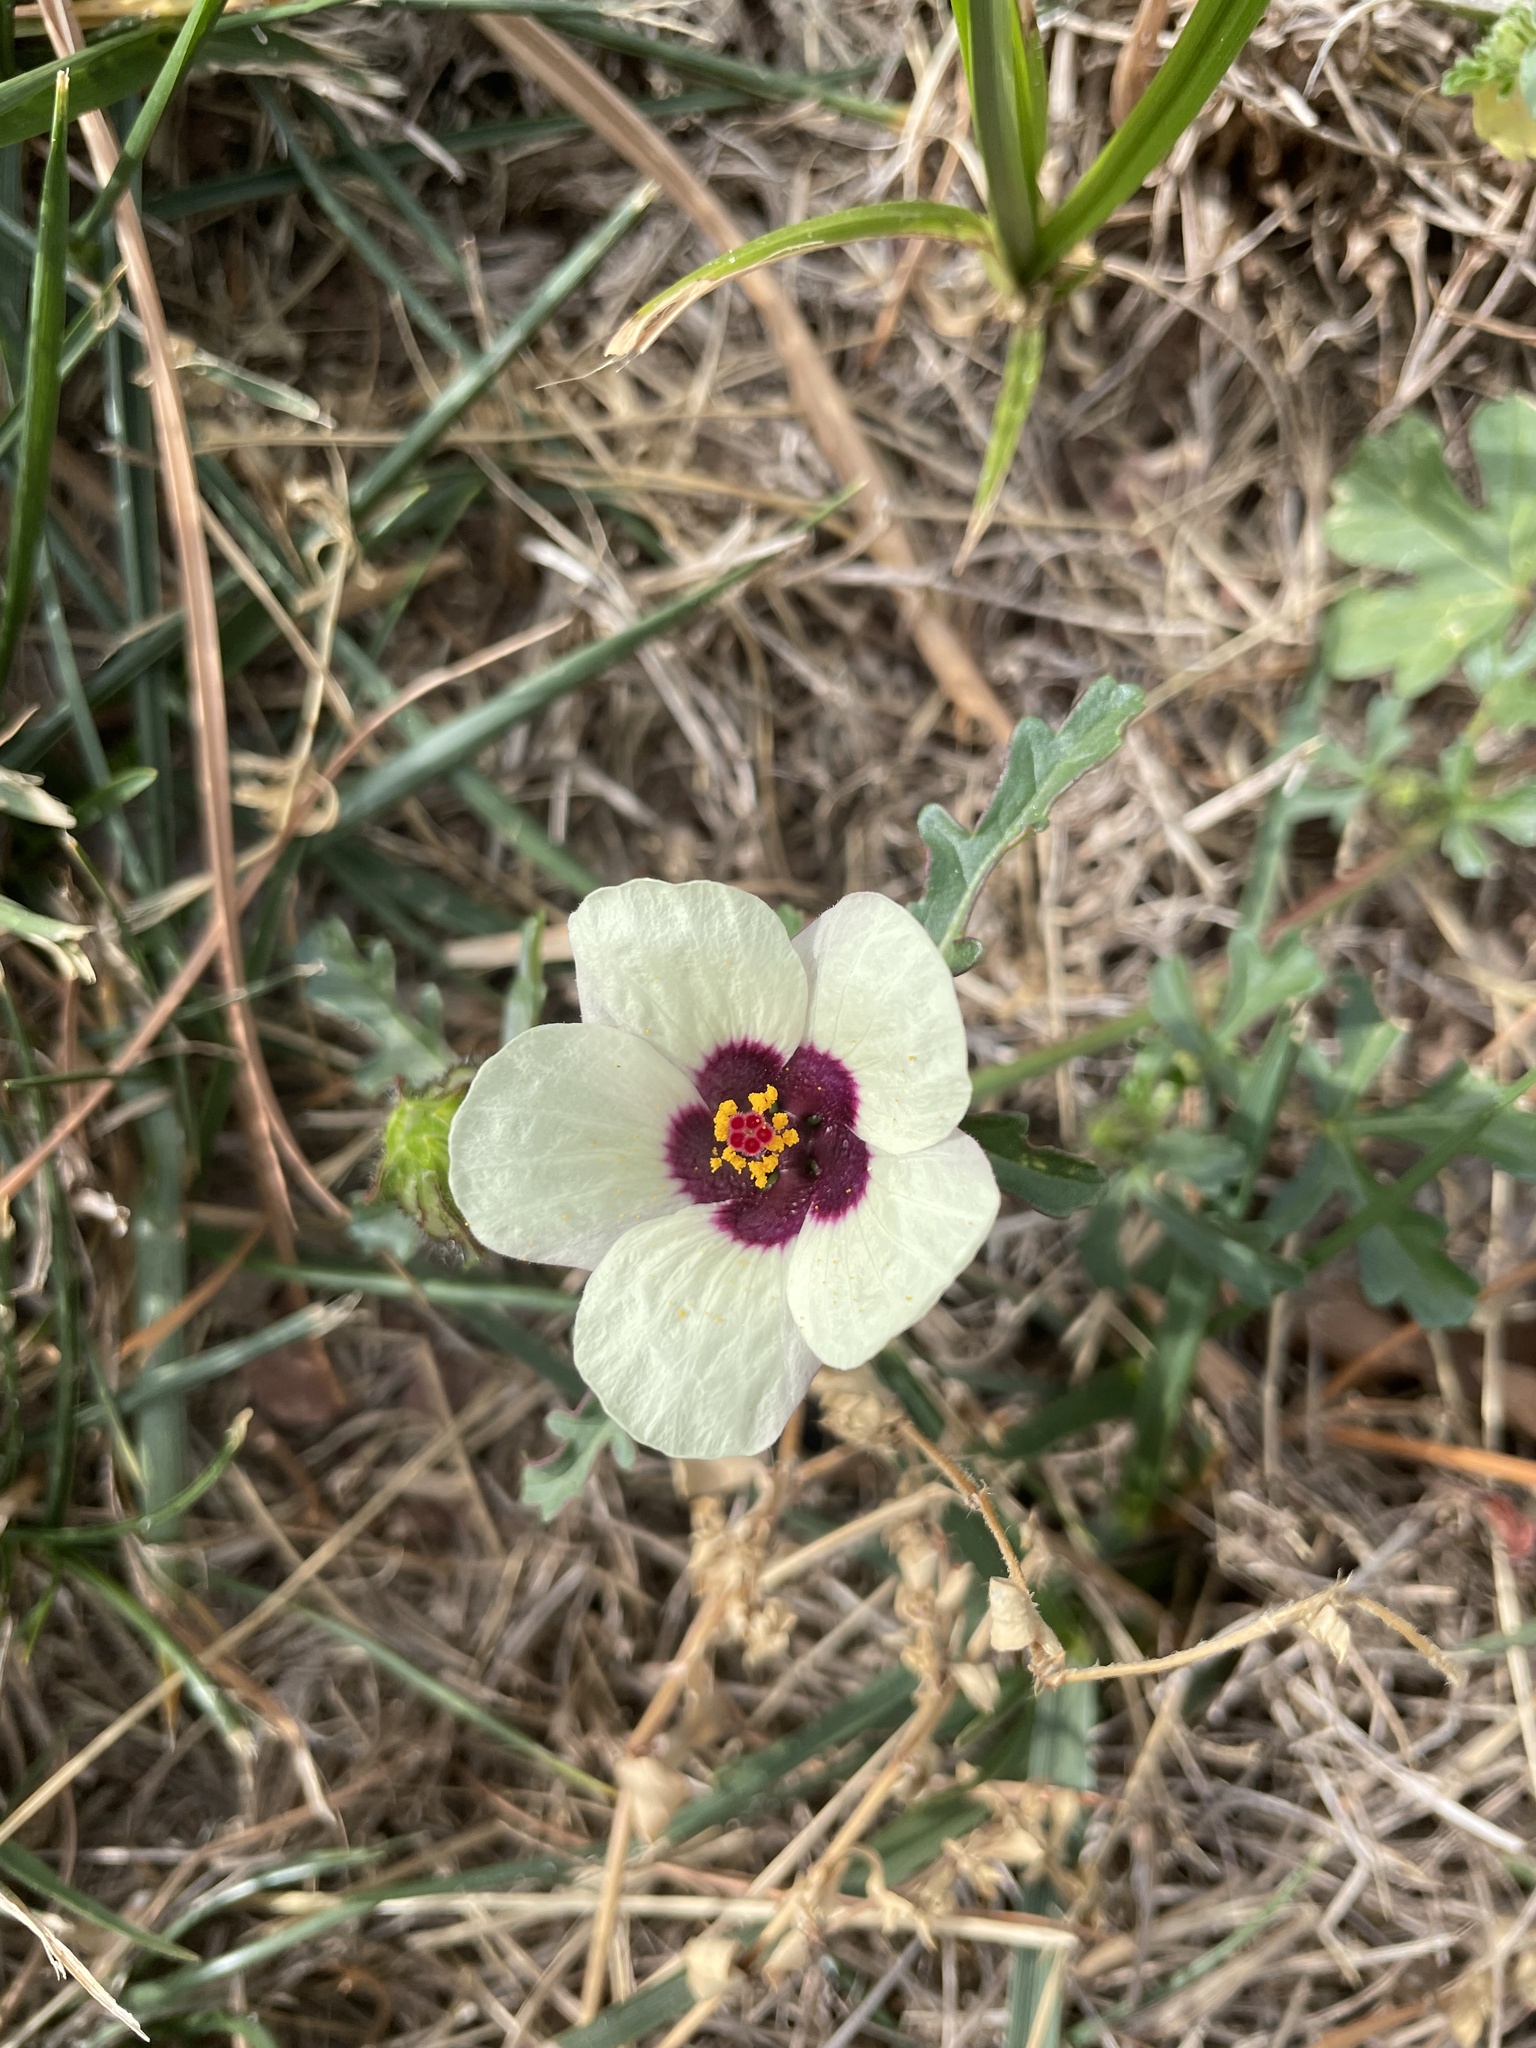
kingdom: Plantae
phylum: Tracheophyta
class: Magnoliopsida
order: Malvales
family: Malvaceae
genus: Hibiscus
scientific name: Hibiscus trionum
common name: Bladder ketmia
